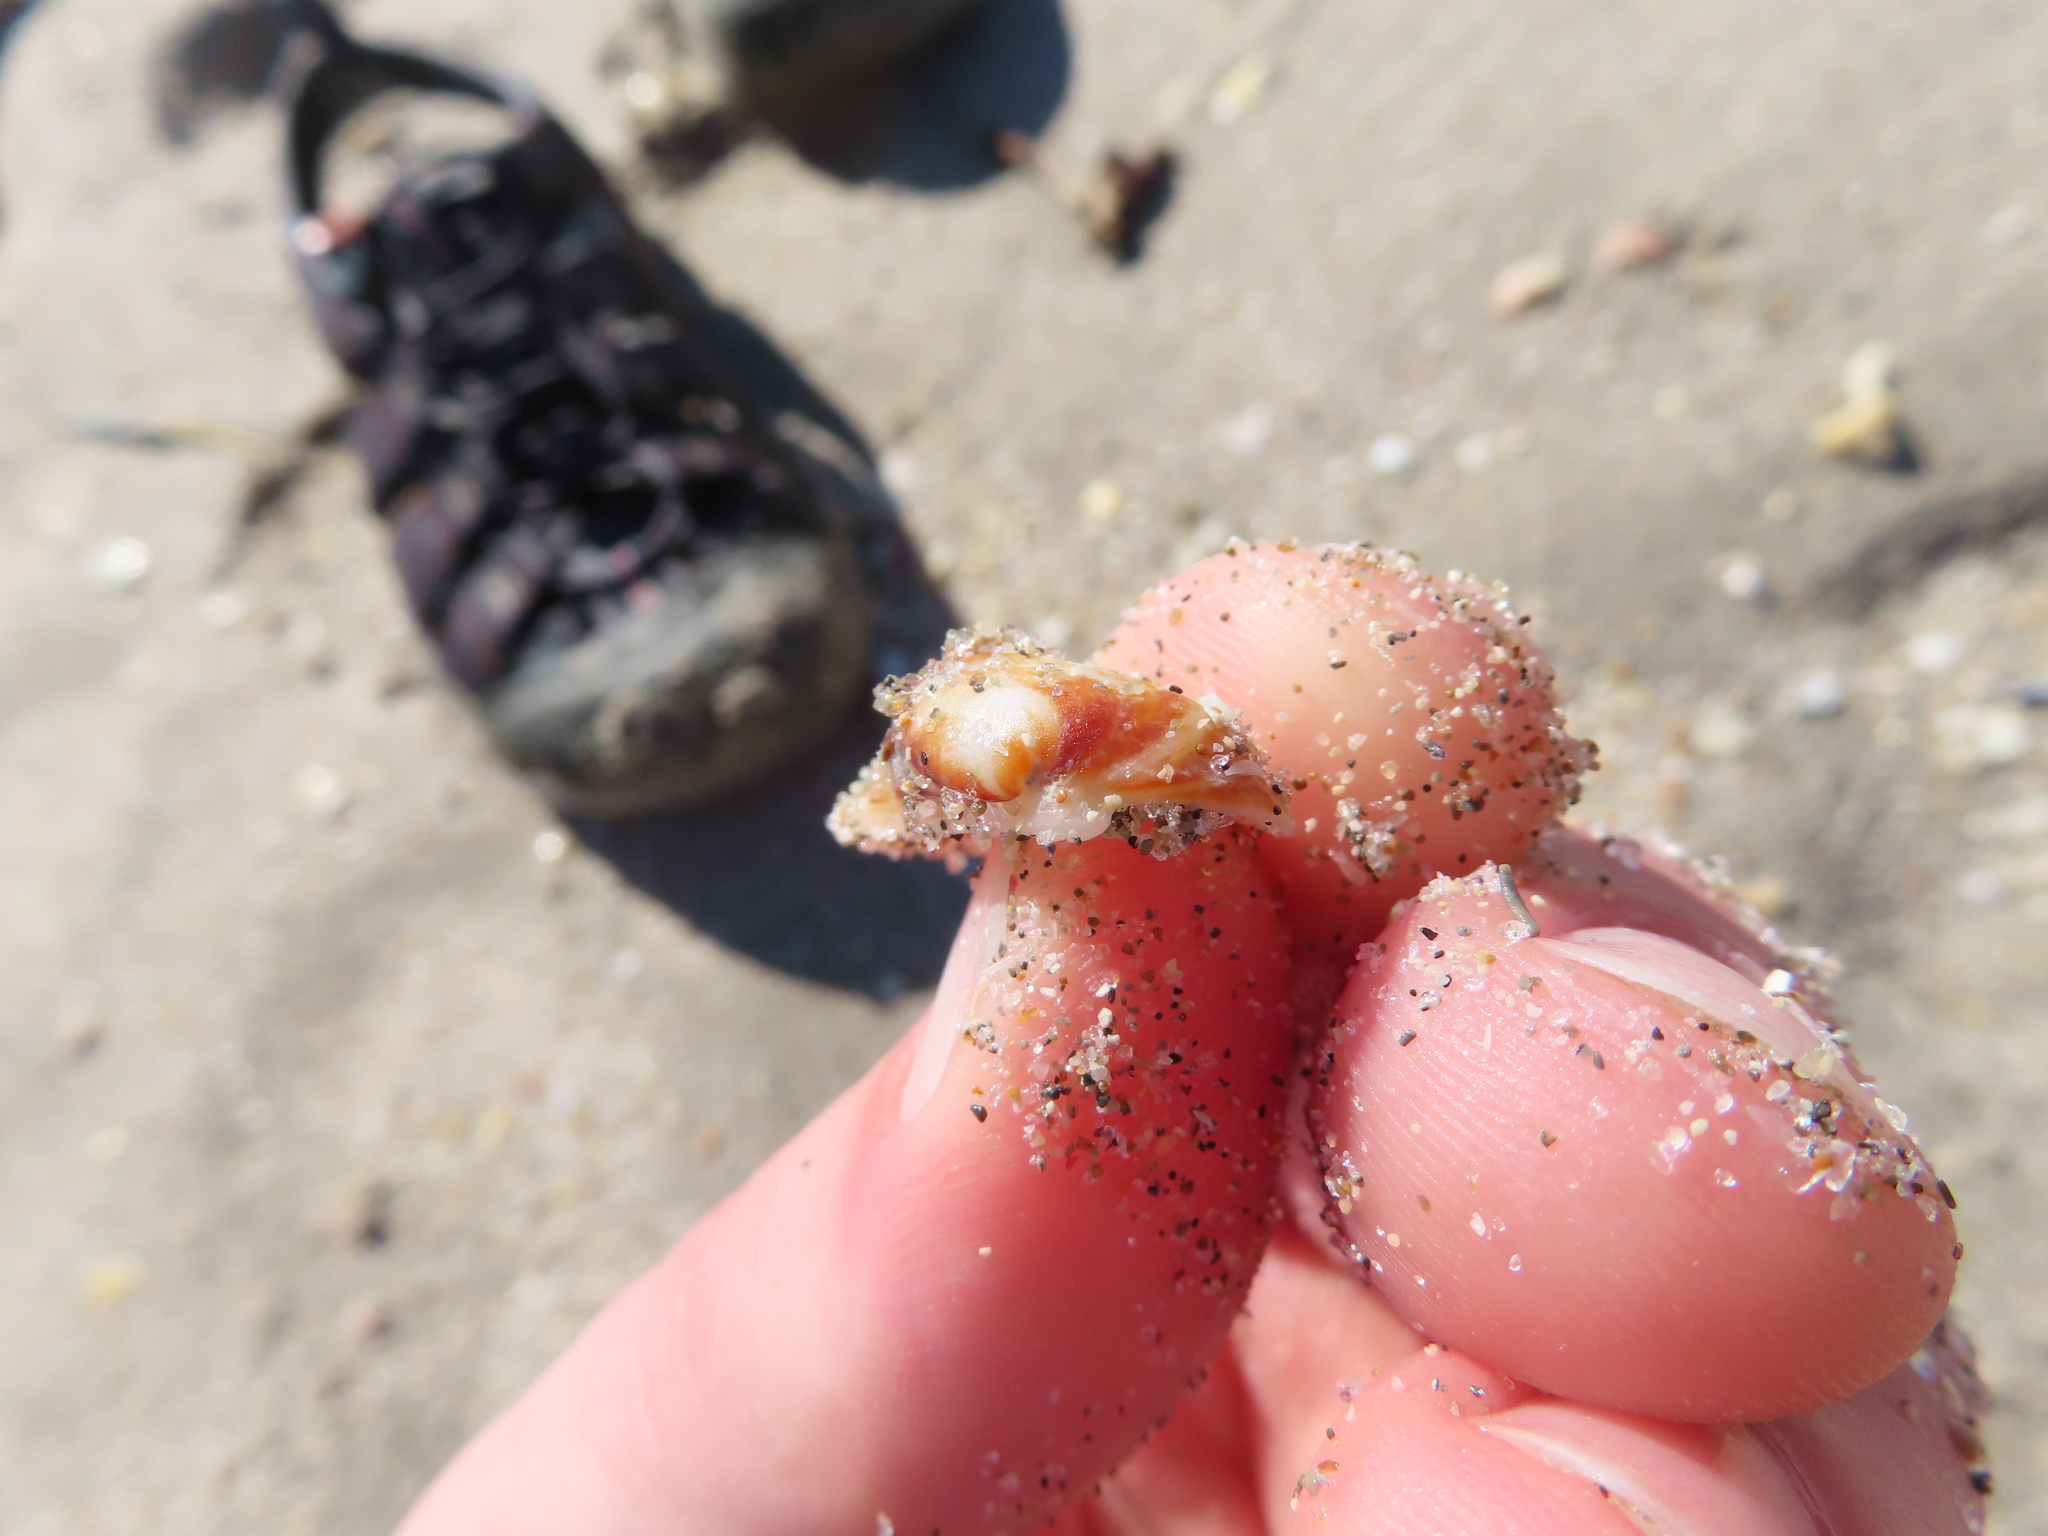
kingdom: Animalia
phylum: Mollusca
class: Bivalvia
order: Arcida
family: Arcidae
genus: Barbatia
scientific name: Barbatia domingensis
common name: White miniature ark
